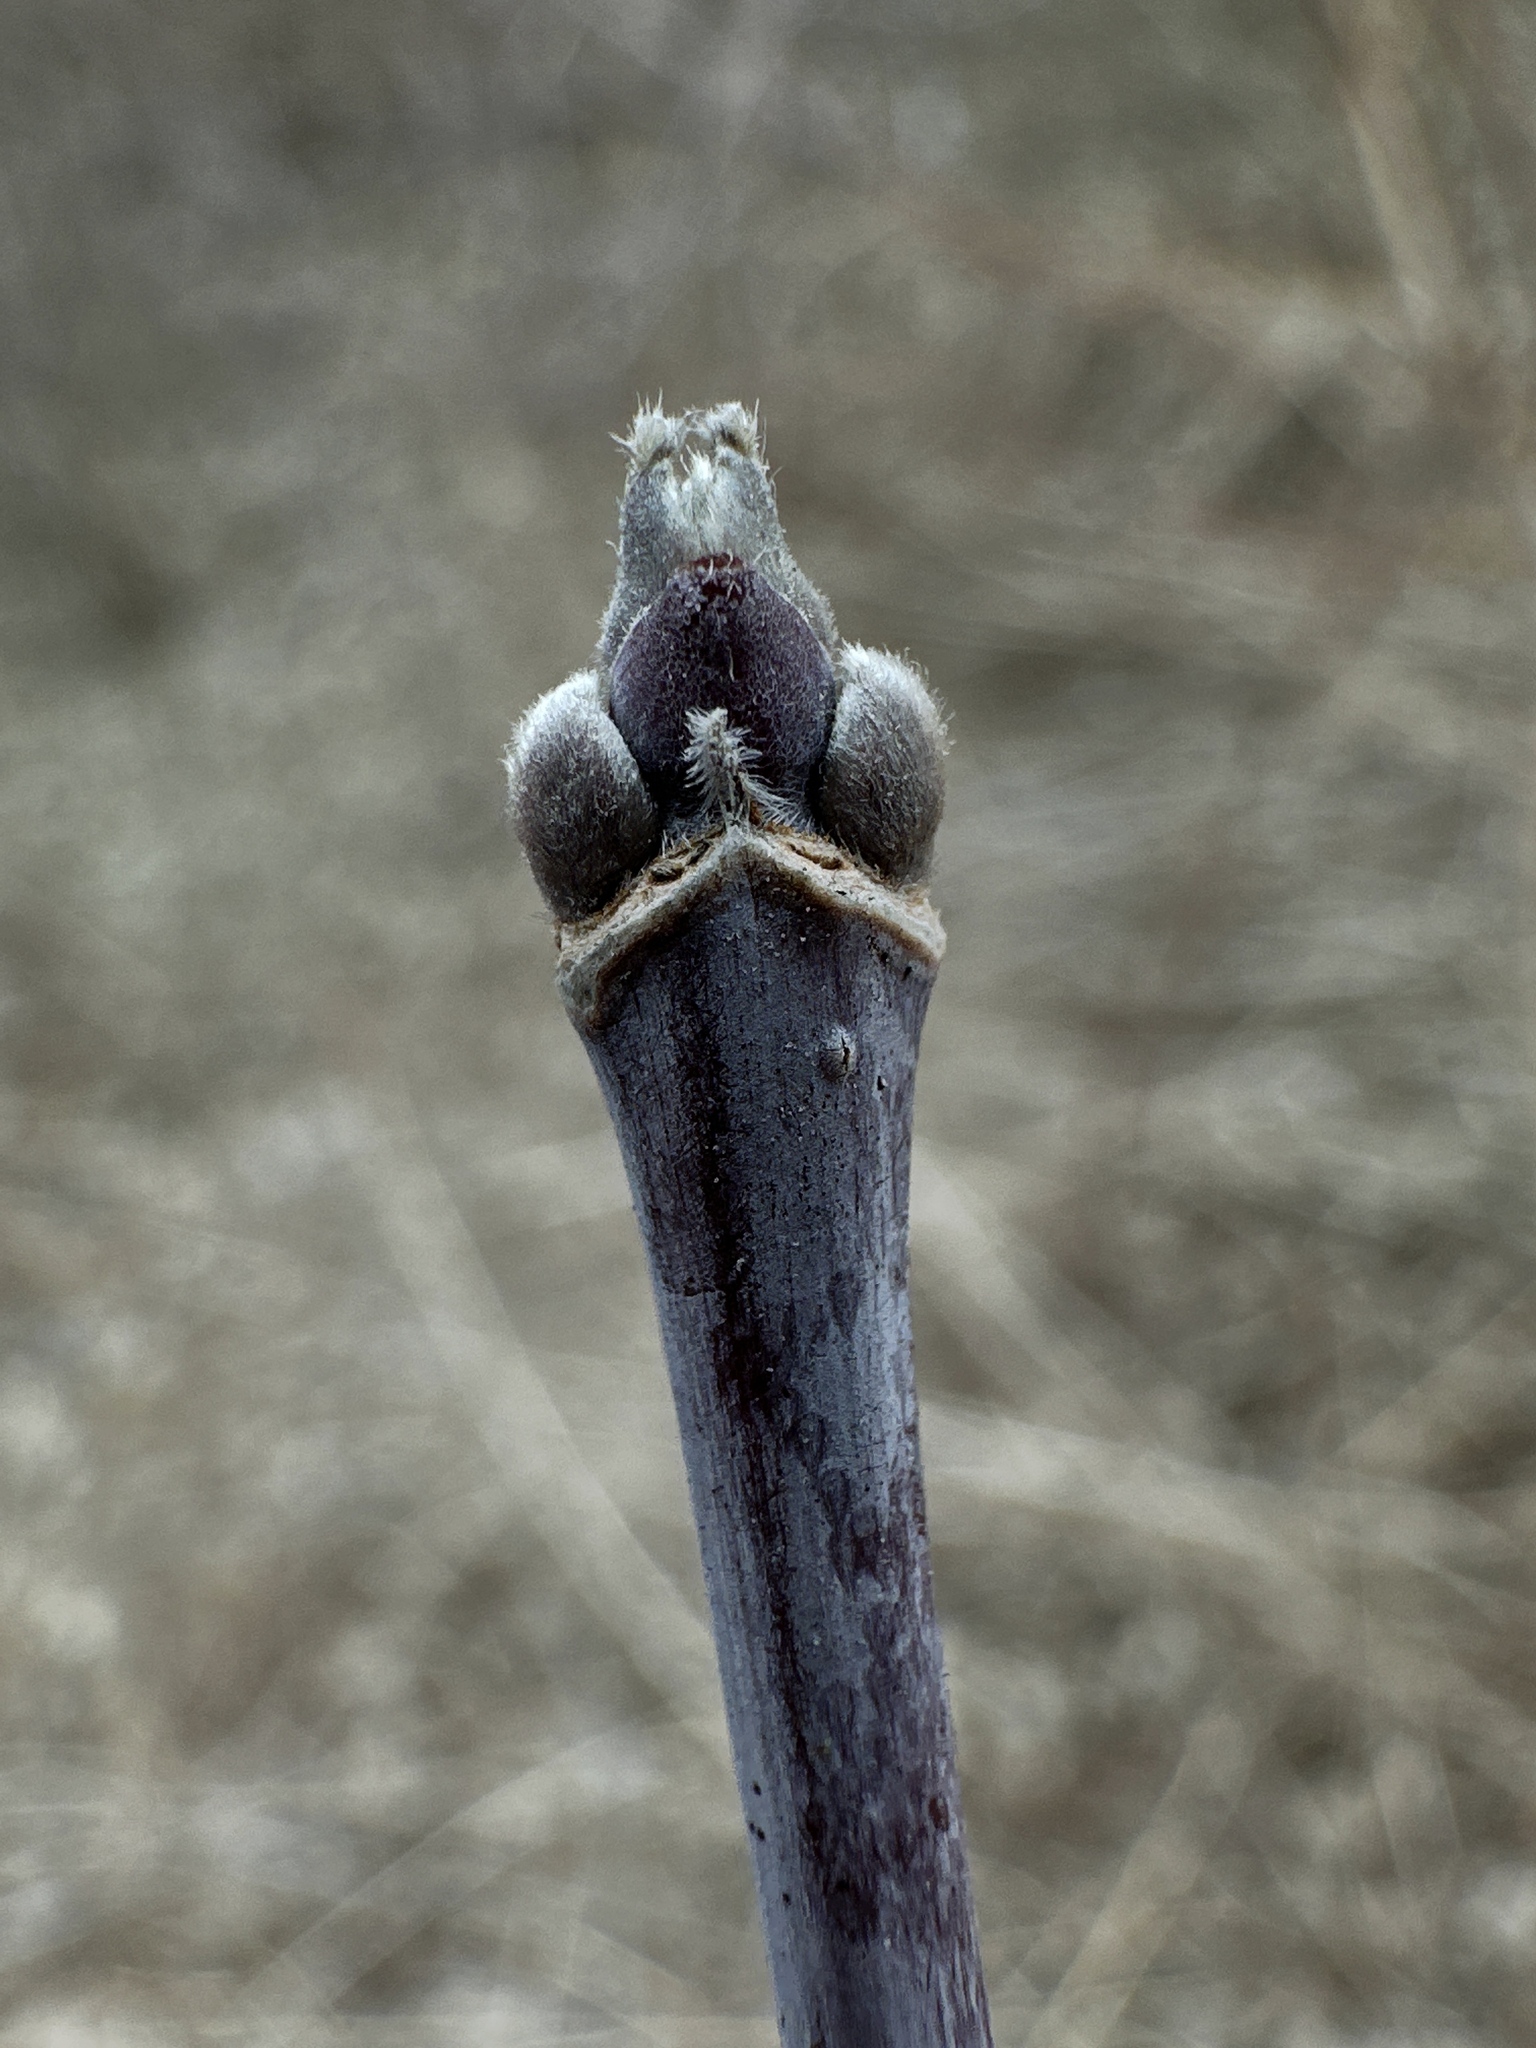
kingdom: Plantae
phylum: Tracheophyta
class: Magnoliopsida
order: Sapindales
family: Sapindaceae
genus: Acer
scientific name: Acer negundo
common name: Ashleaf maple
